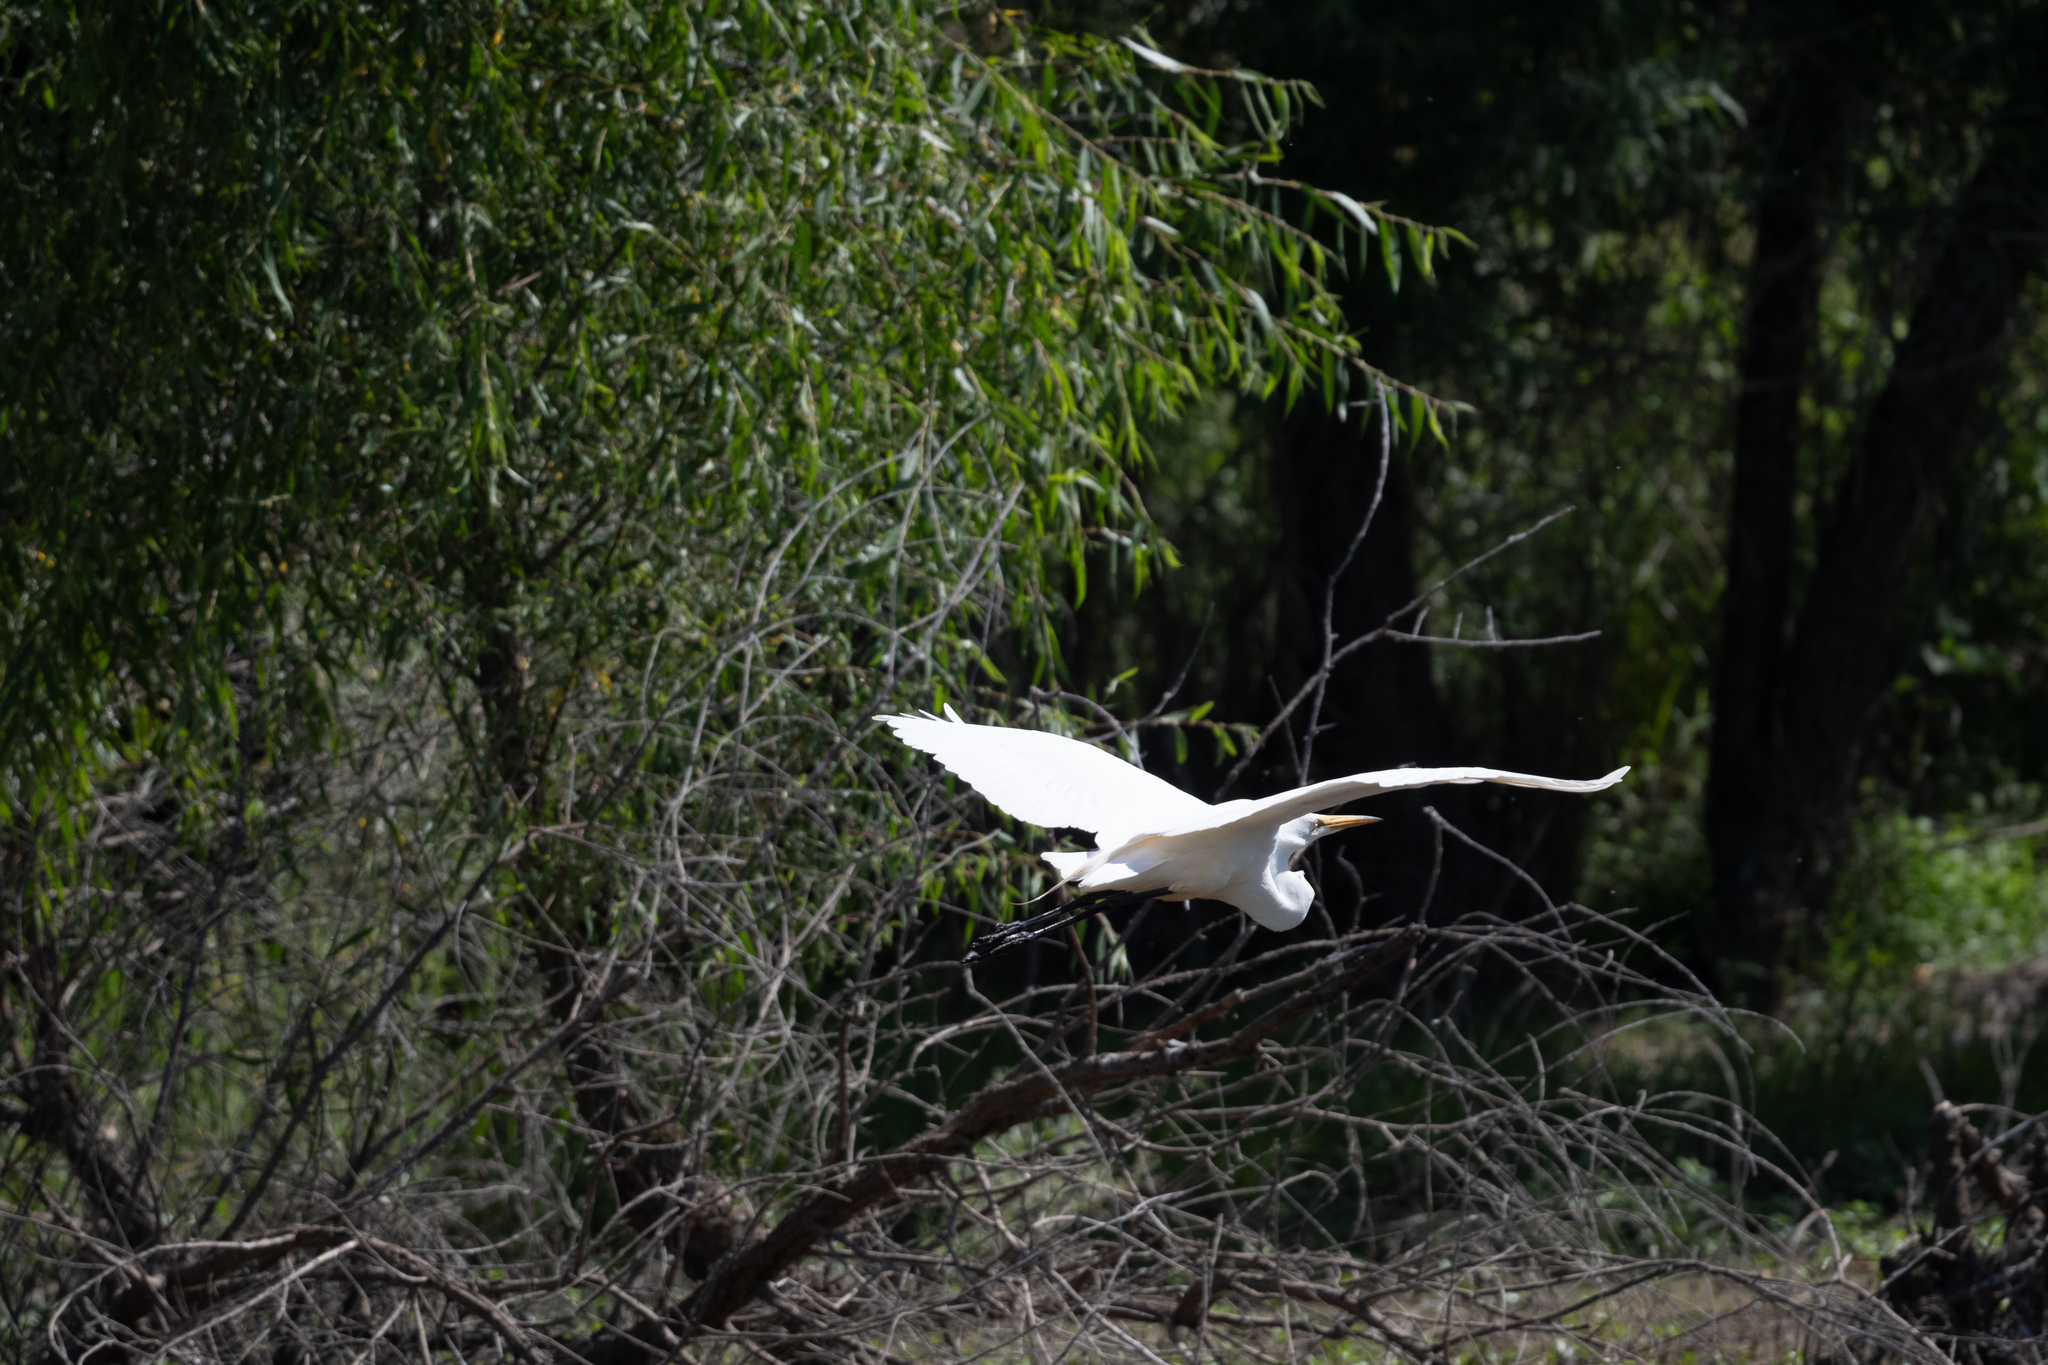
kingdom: Animalia
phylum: Chordata
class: Aves
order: Pelecaniformes
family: Ardeidae
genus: Ardea
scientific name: Ardea alba
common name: Great egret
